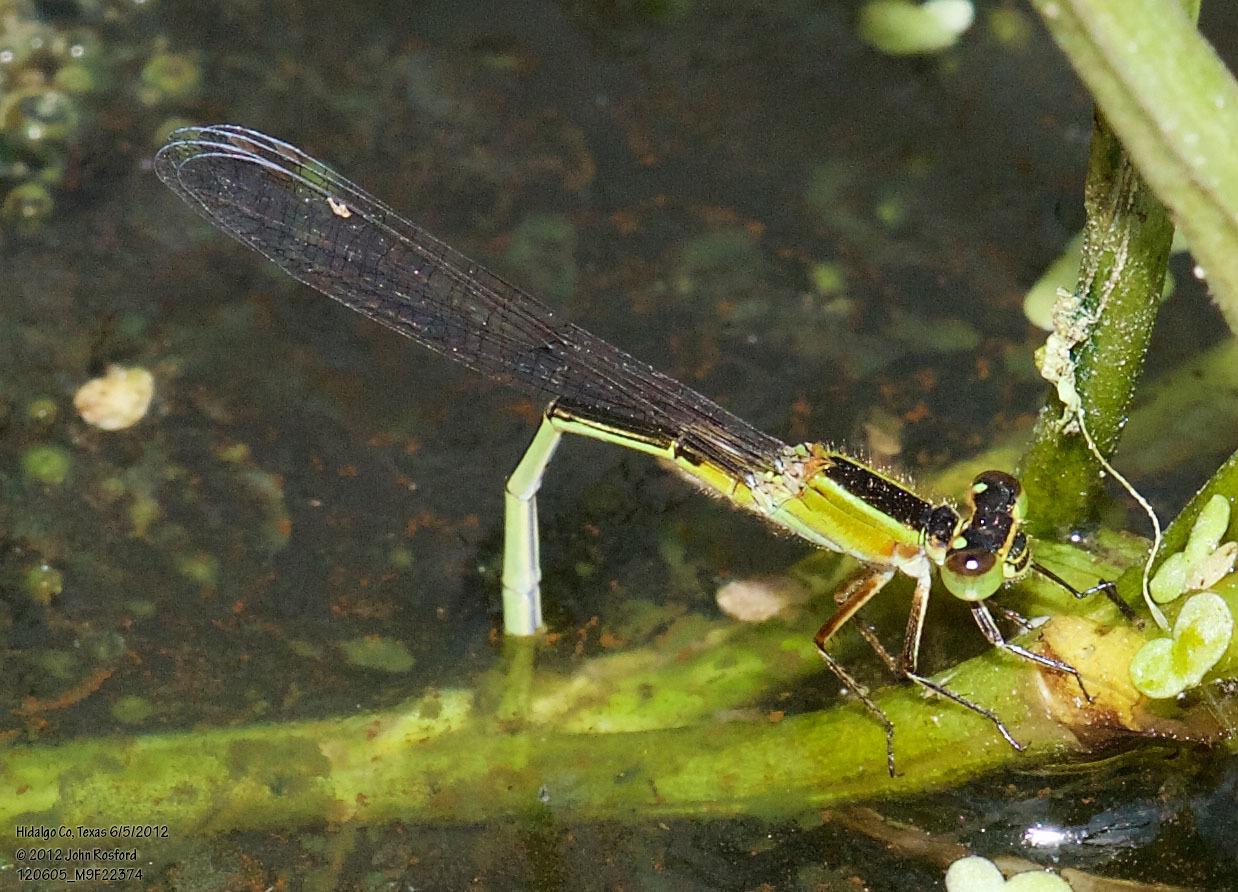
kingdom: Animalia
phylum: Arthropoda
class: Insecta
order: Odonata
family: Coenagrionidae
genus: Ischnura
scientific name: Ischnura ramburii
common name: Rambur's forktail
